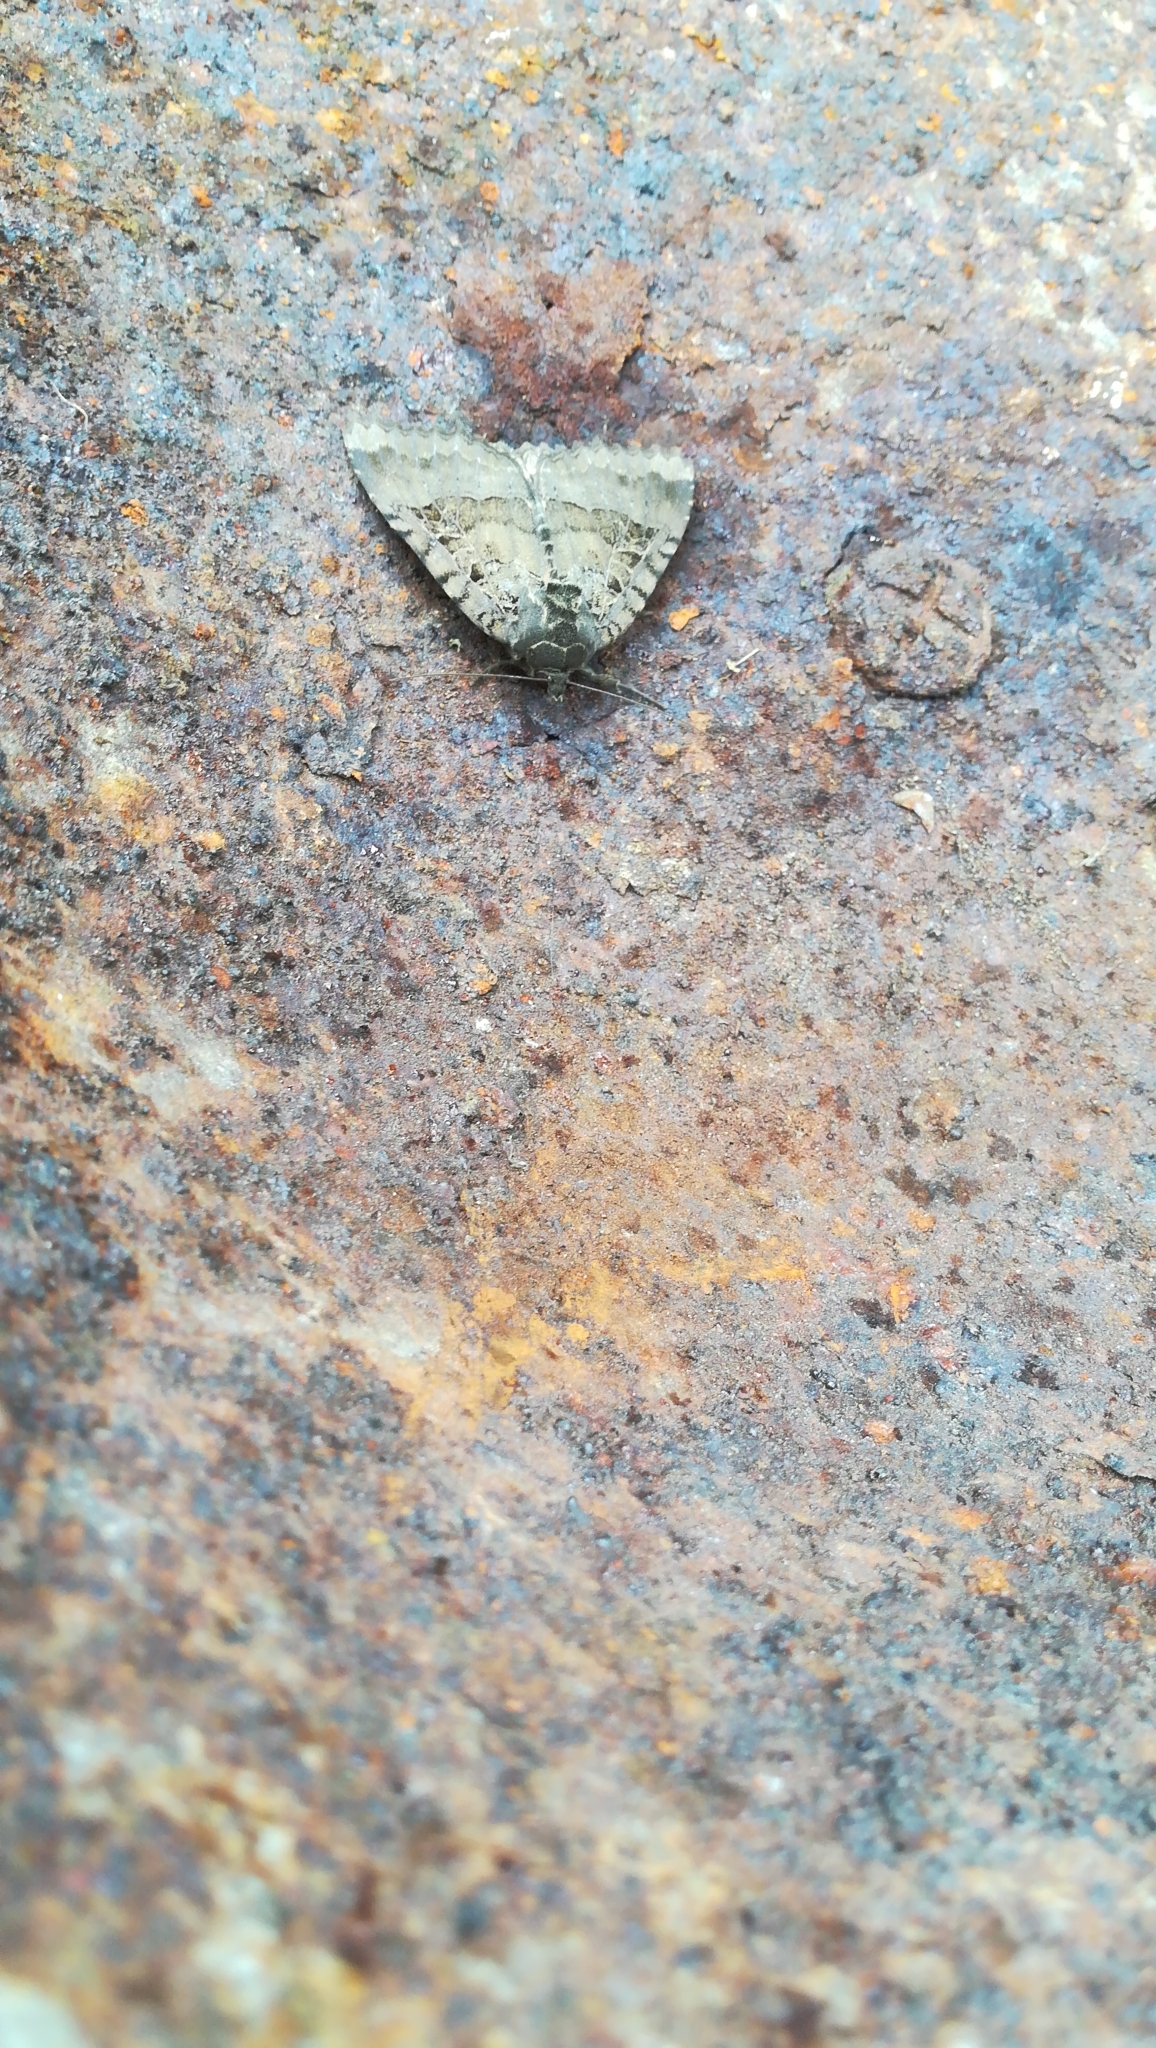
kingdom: Animalia
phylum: Arthropoda
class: Insecta
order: Lepidoptera
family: Noctuidae
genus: Mormo
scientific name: Mormo maura
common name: Old lady
